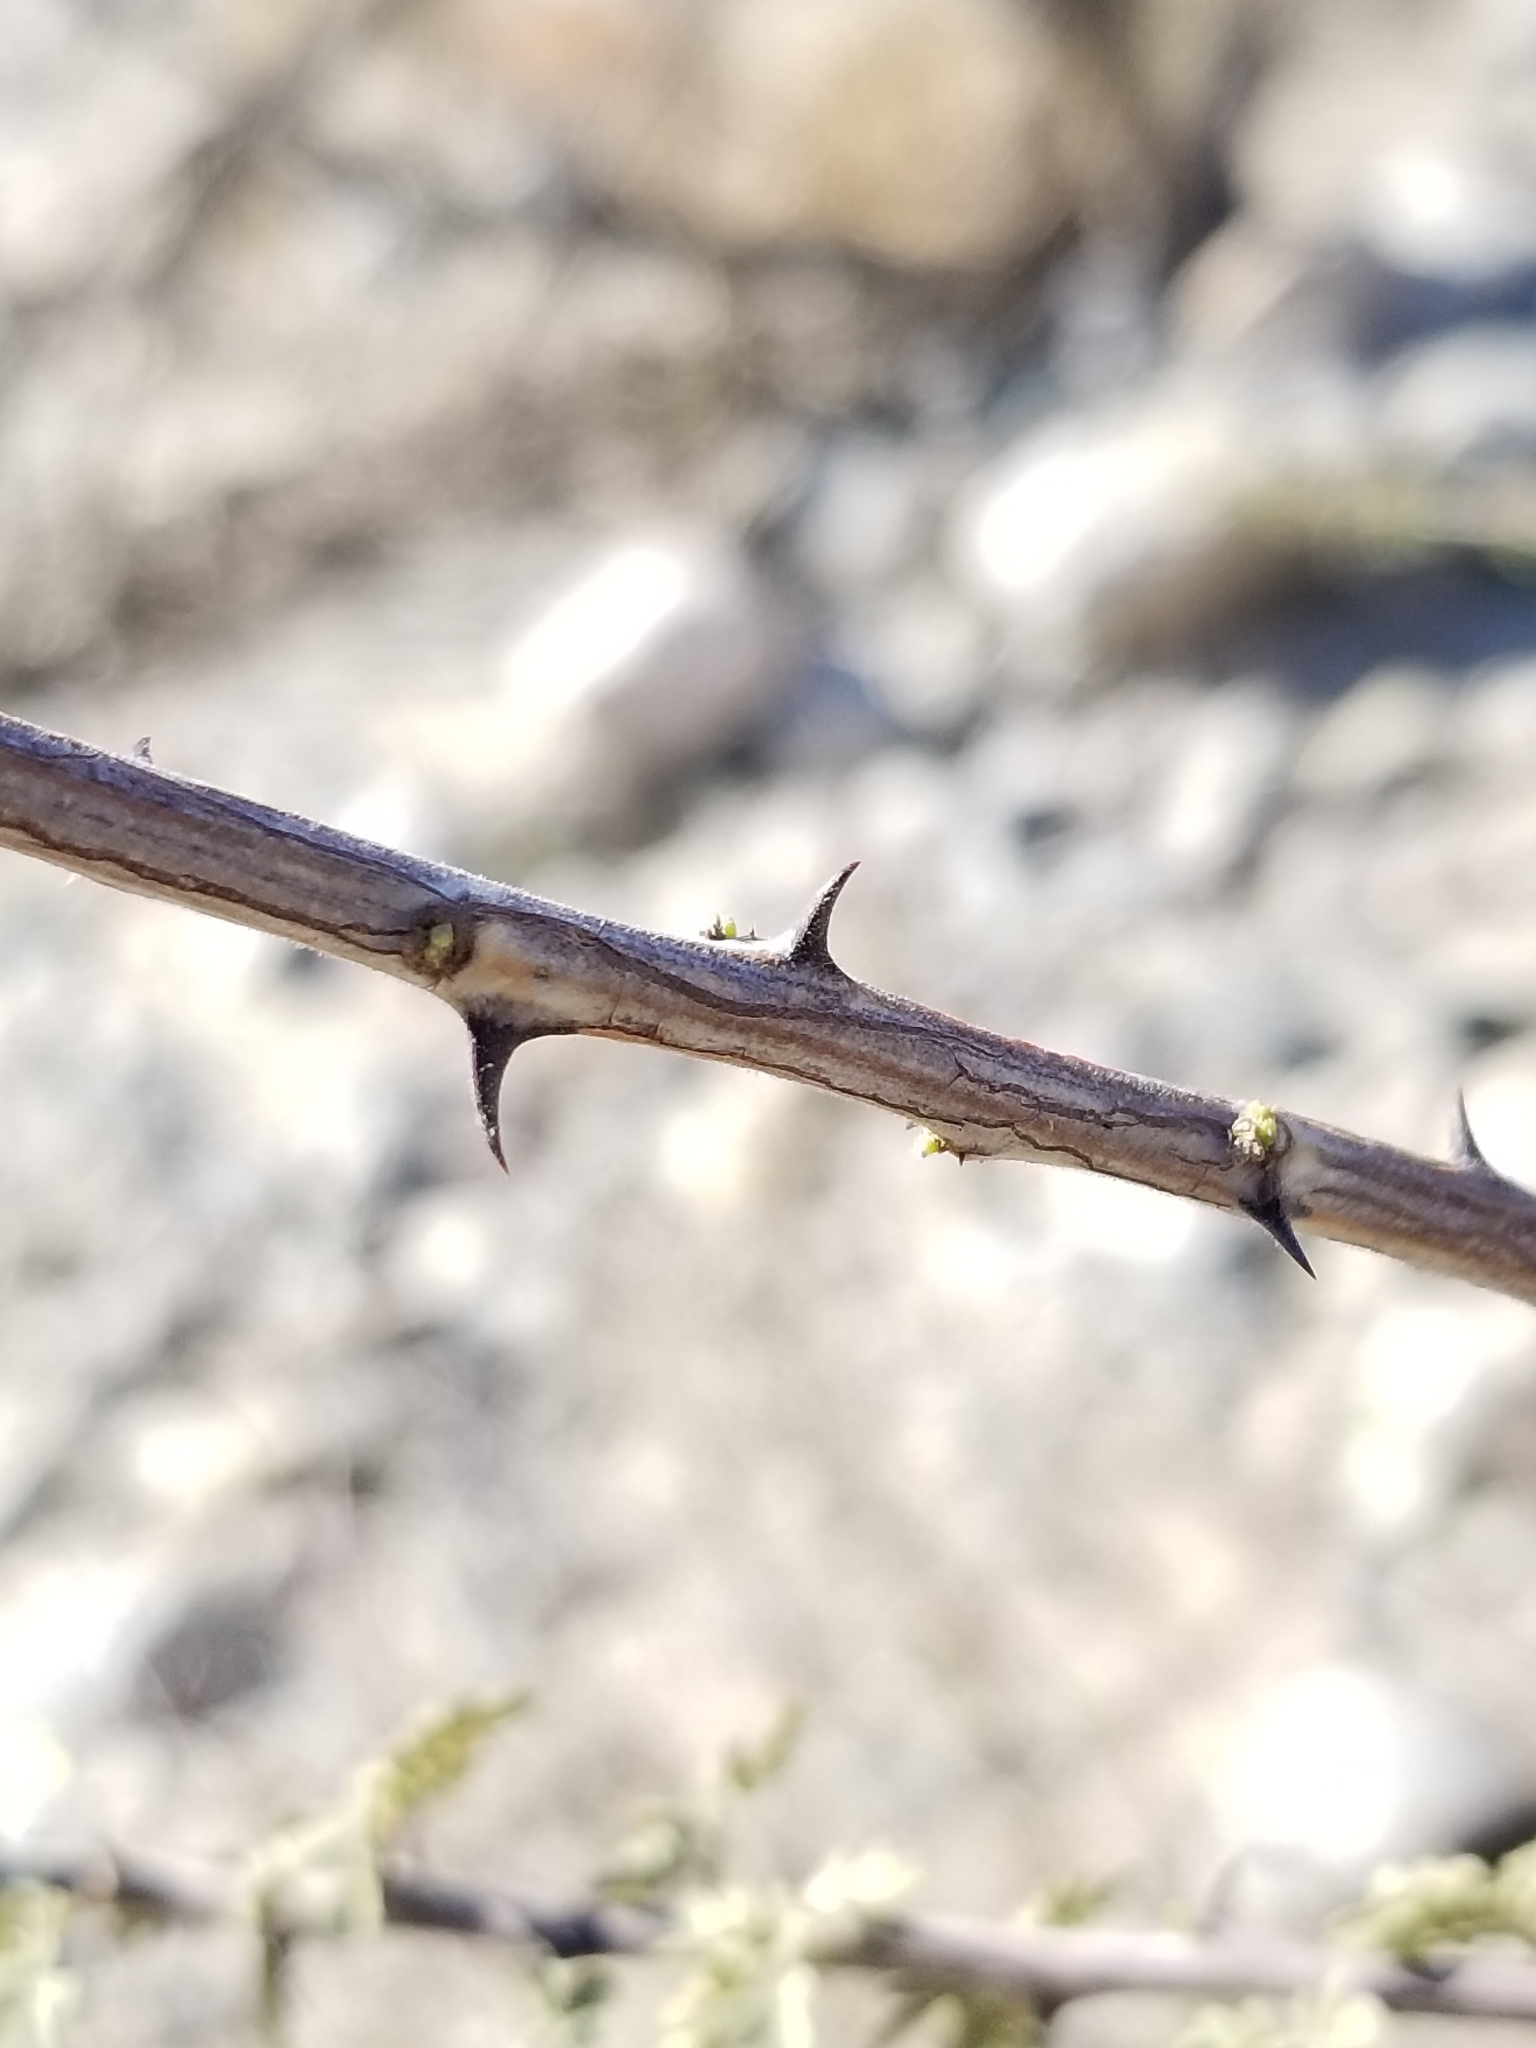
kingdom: Plantae
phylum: Tracheophyta
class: Magnoliopsida
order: Fabales
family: Fabaceae
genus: Senegalia
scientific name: Senegalia greggii
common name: Texas-mimosa
